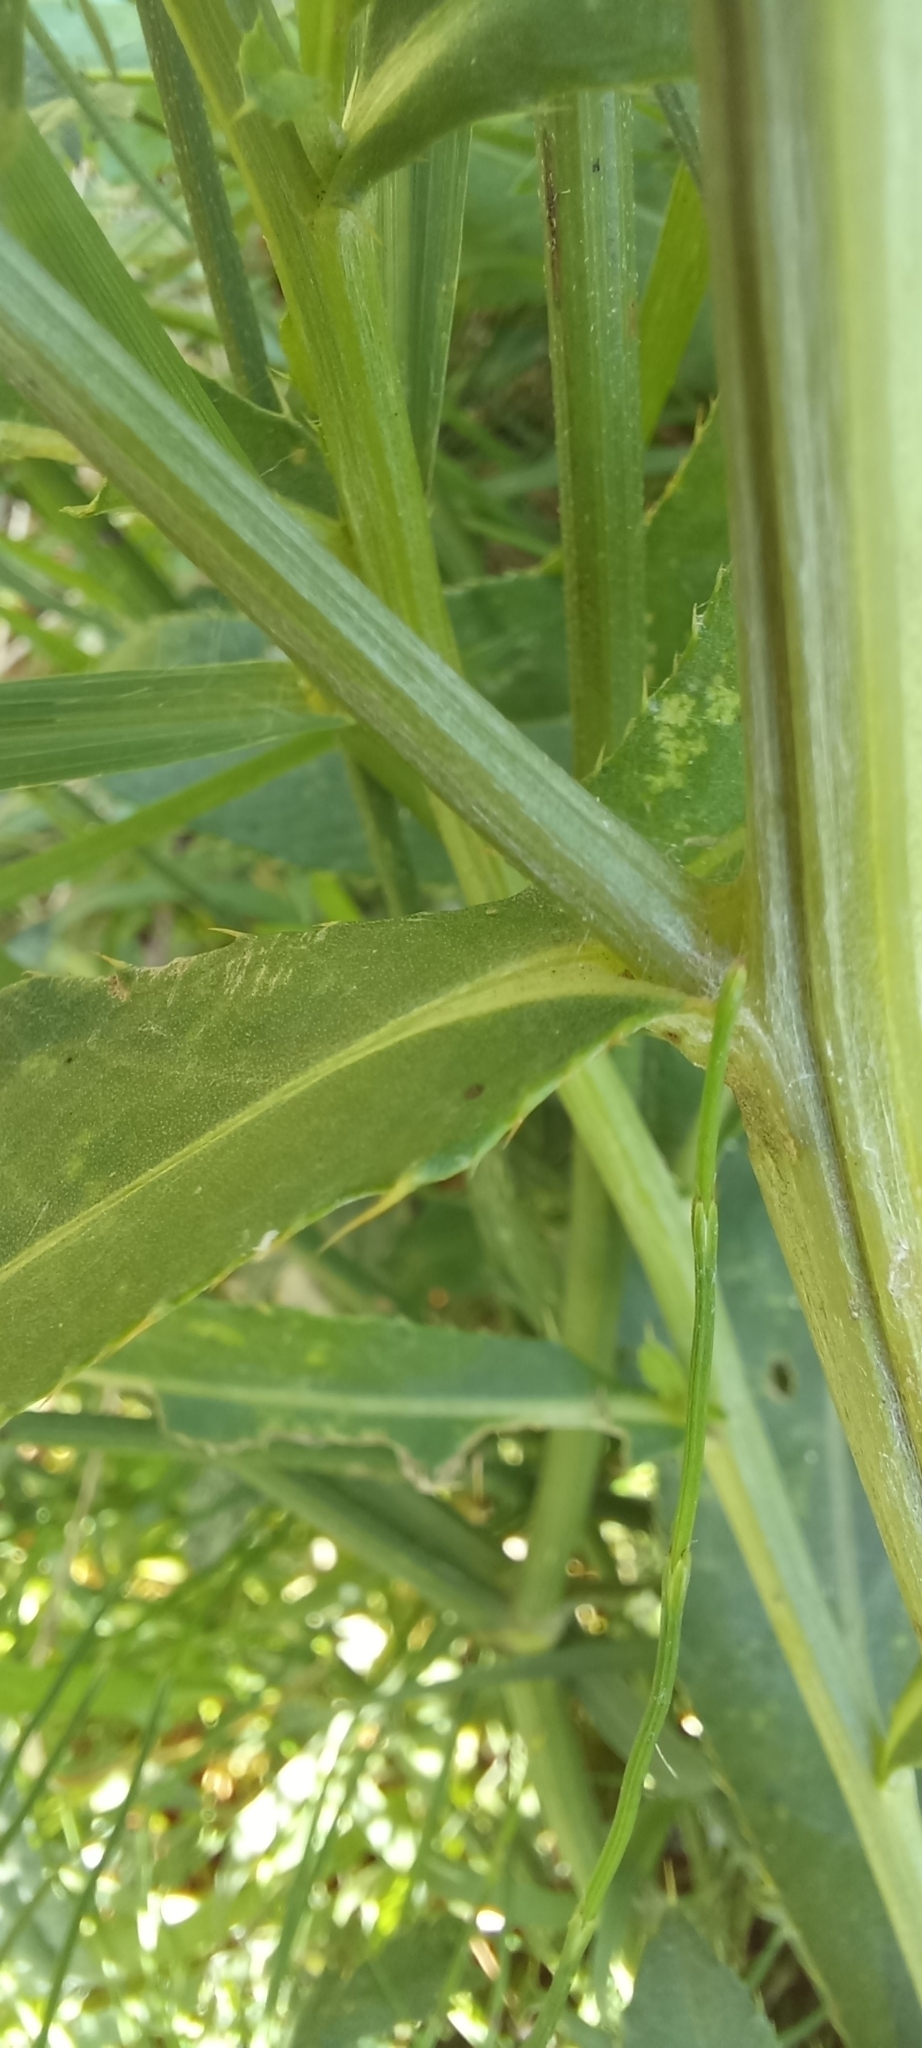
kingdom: Plantae
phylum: Tracheophyta
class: Magnoliopsida
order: Asterales
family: Asteraceae
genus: Cirsium
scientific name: Cirsium arvense
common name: Creeping thistle
